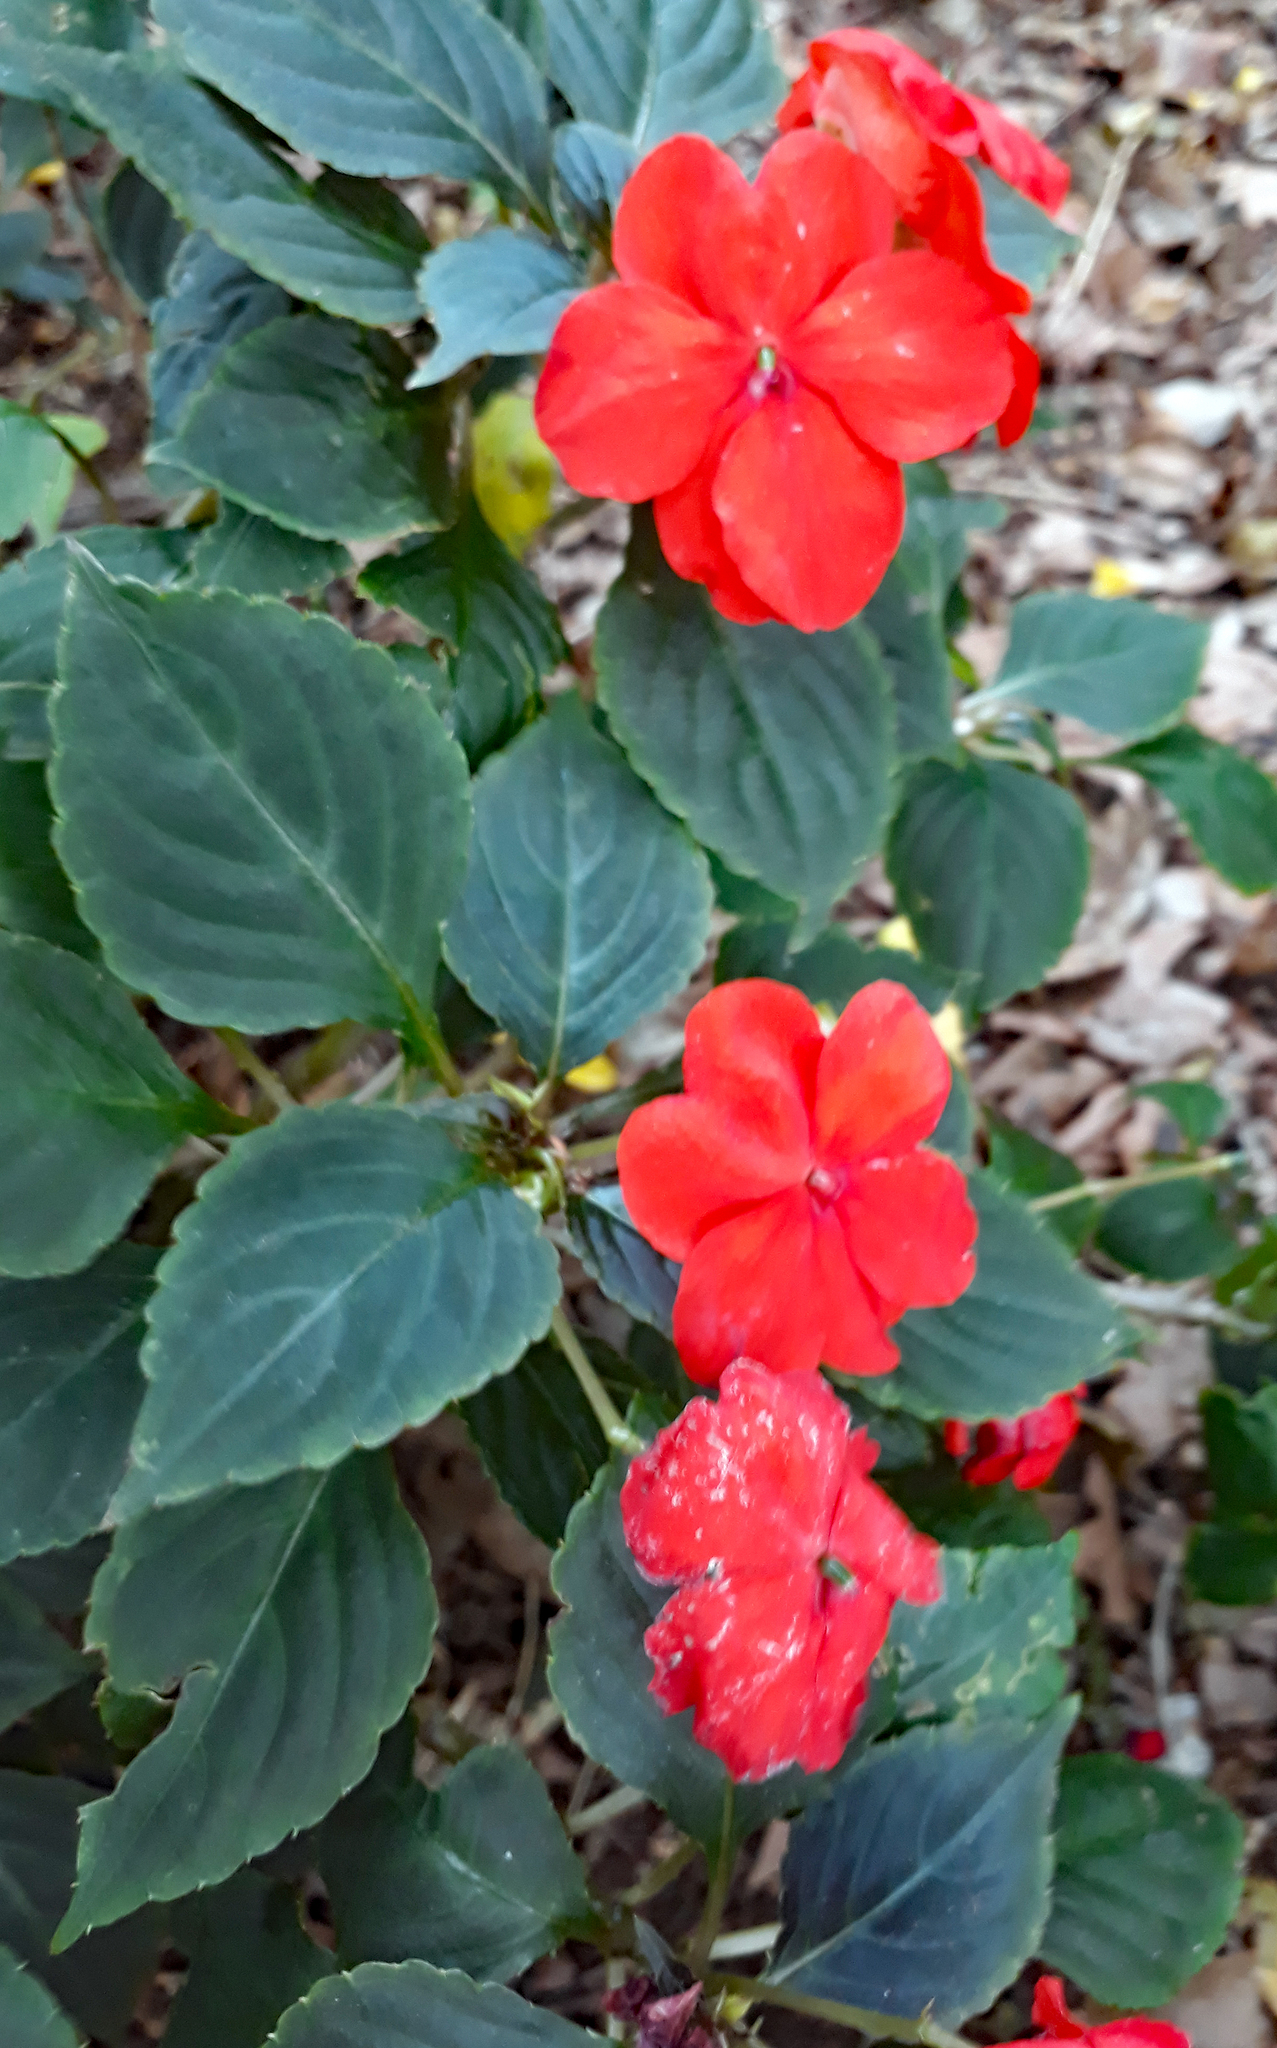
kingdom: Plantae
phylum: Tracheophyta
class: Magnoliopsida
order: Ericales
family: Balsaminaceae
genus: Impatiens
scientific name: Impatiens walleriana
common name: Buzzy lizzy
